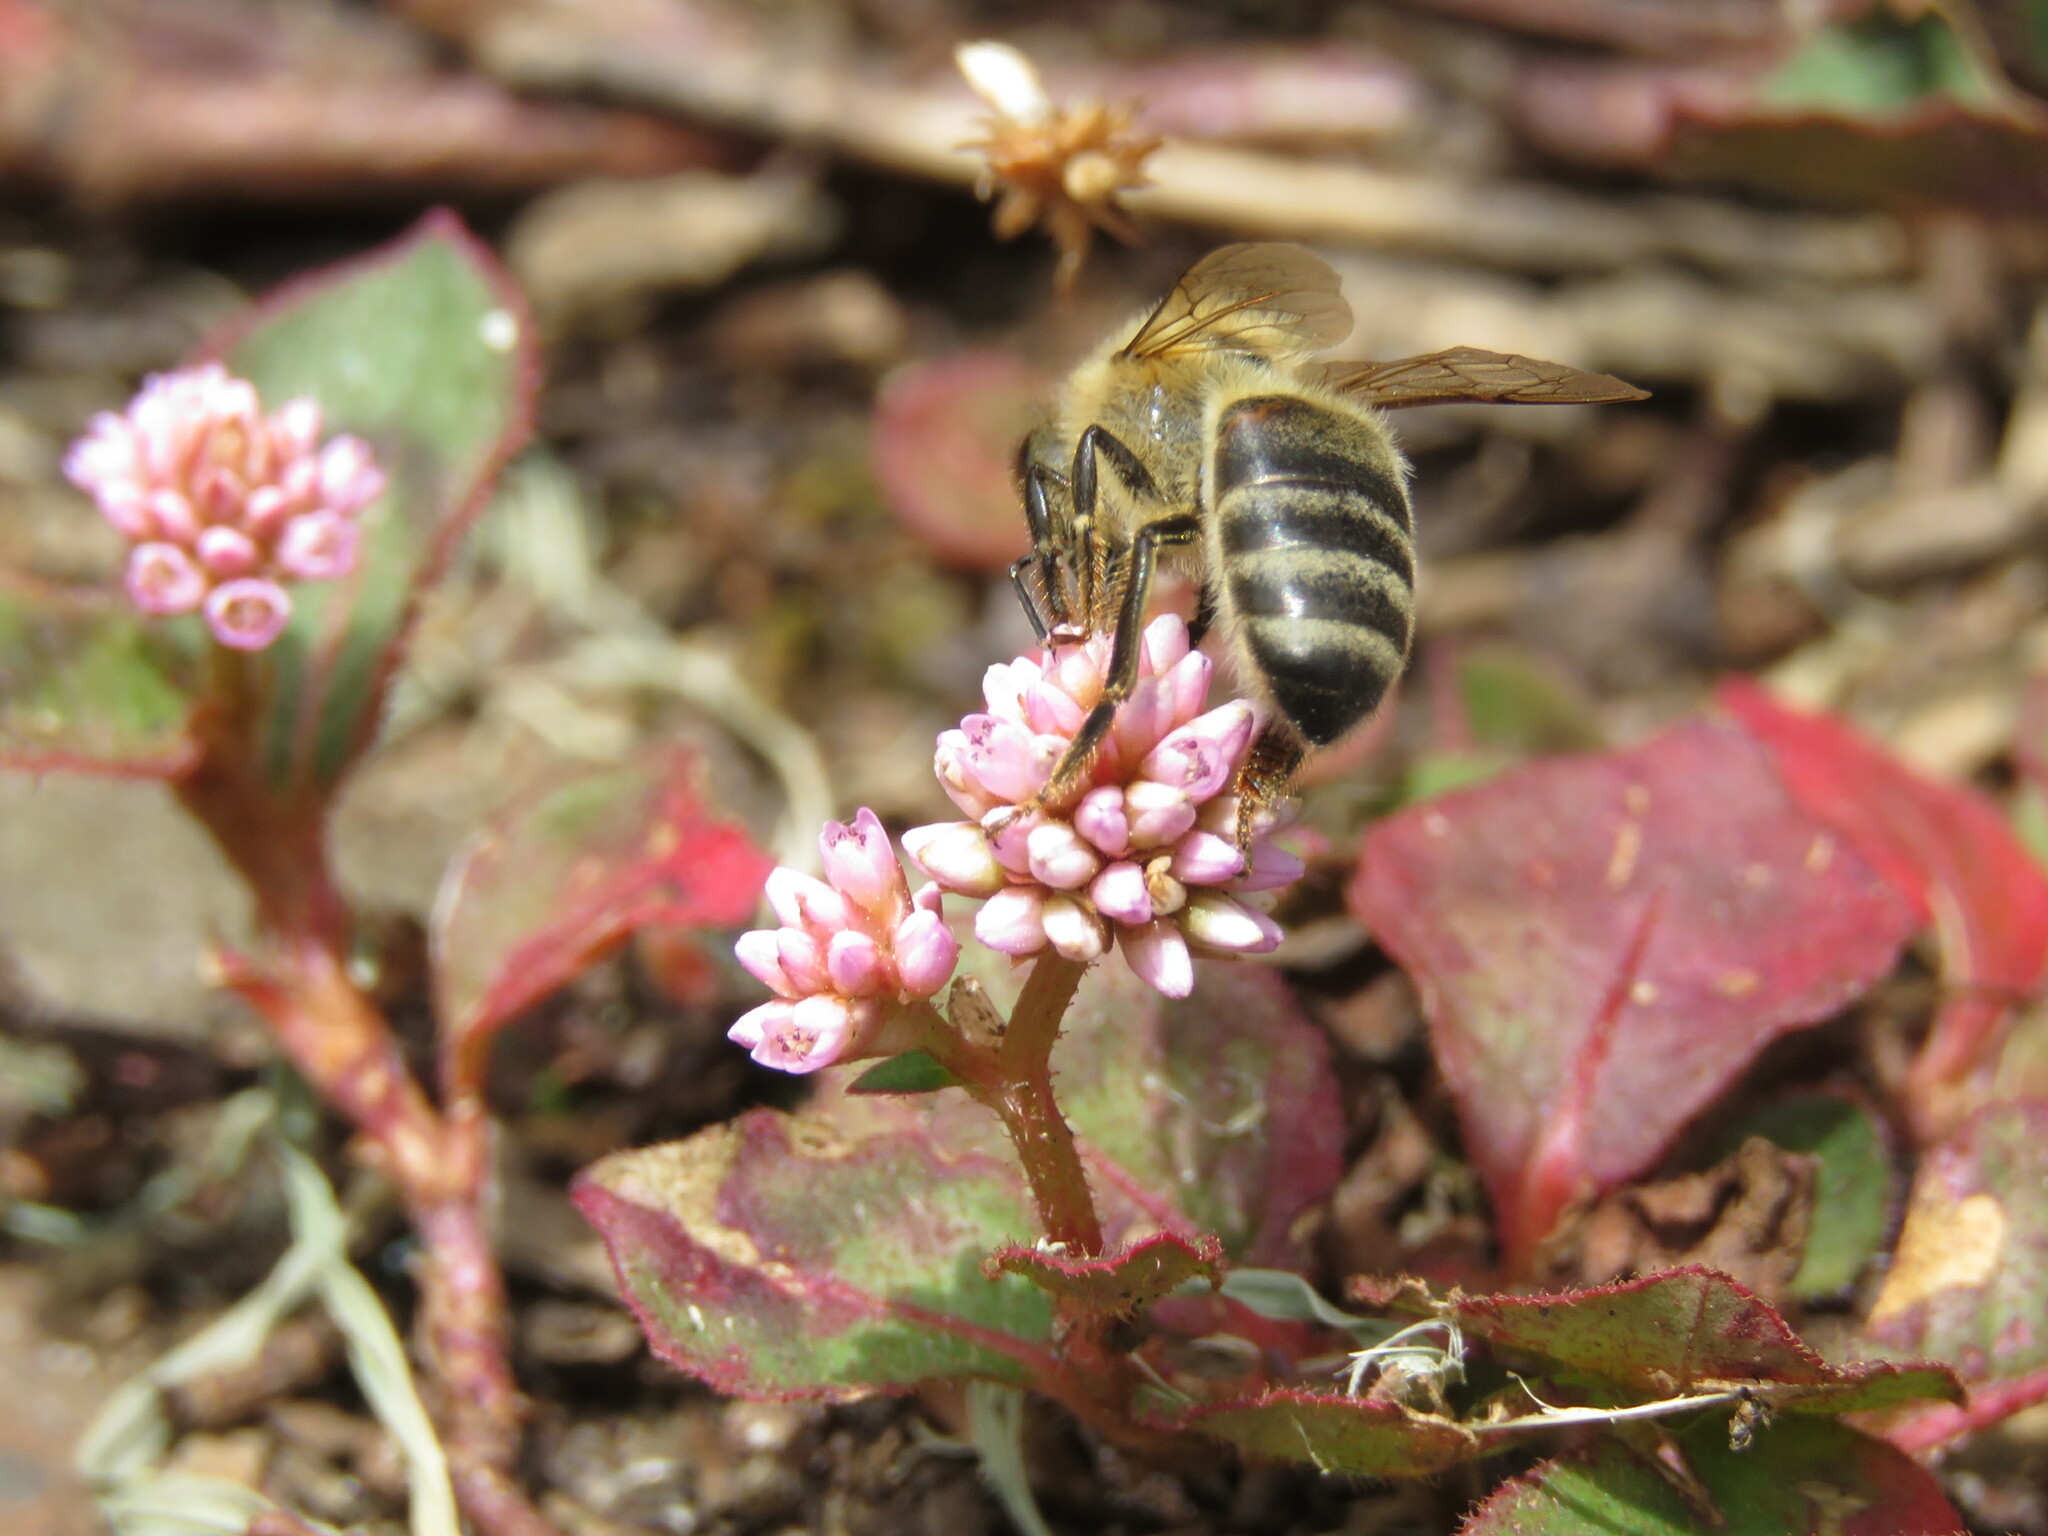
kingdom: Animalia
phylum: Arthropoda
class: Insecta
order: Hymenoptera
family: Apidae
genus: Apis
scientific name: Apis mellifera
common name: Honey bee
